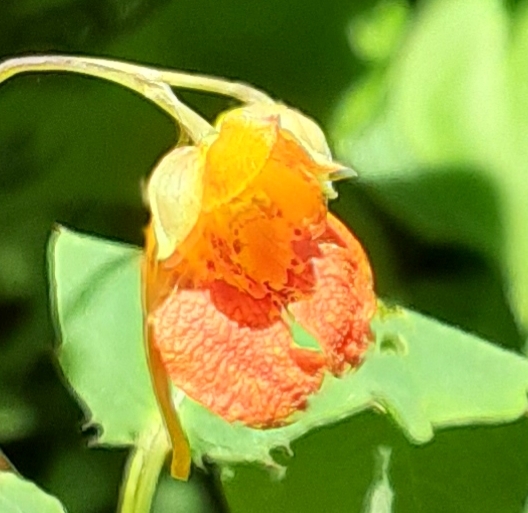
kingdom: Plantae
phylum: Tracheophyta
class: Magnoliopsida
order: Ericales
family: Balsaminaceae
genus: Impatiens
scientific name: Impatiens capensis
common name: Orange balsam
